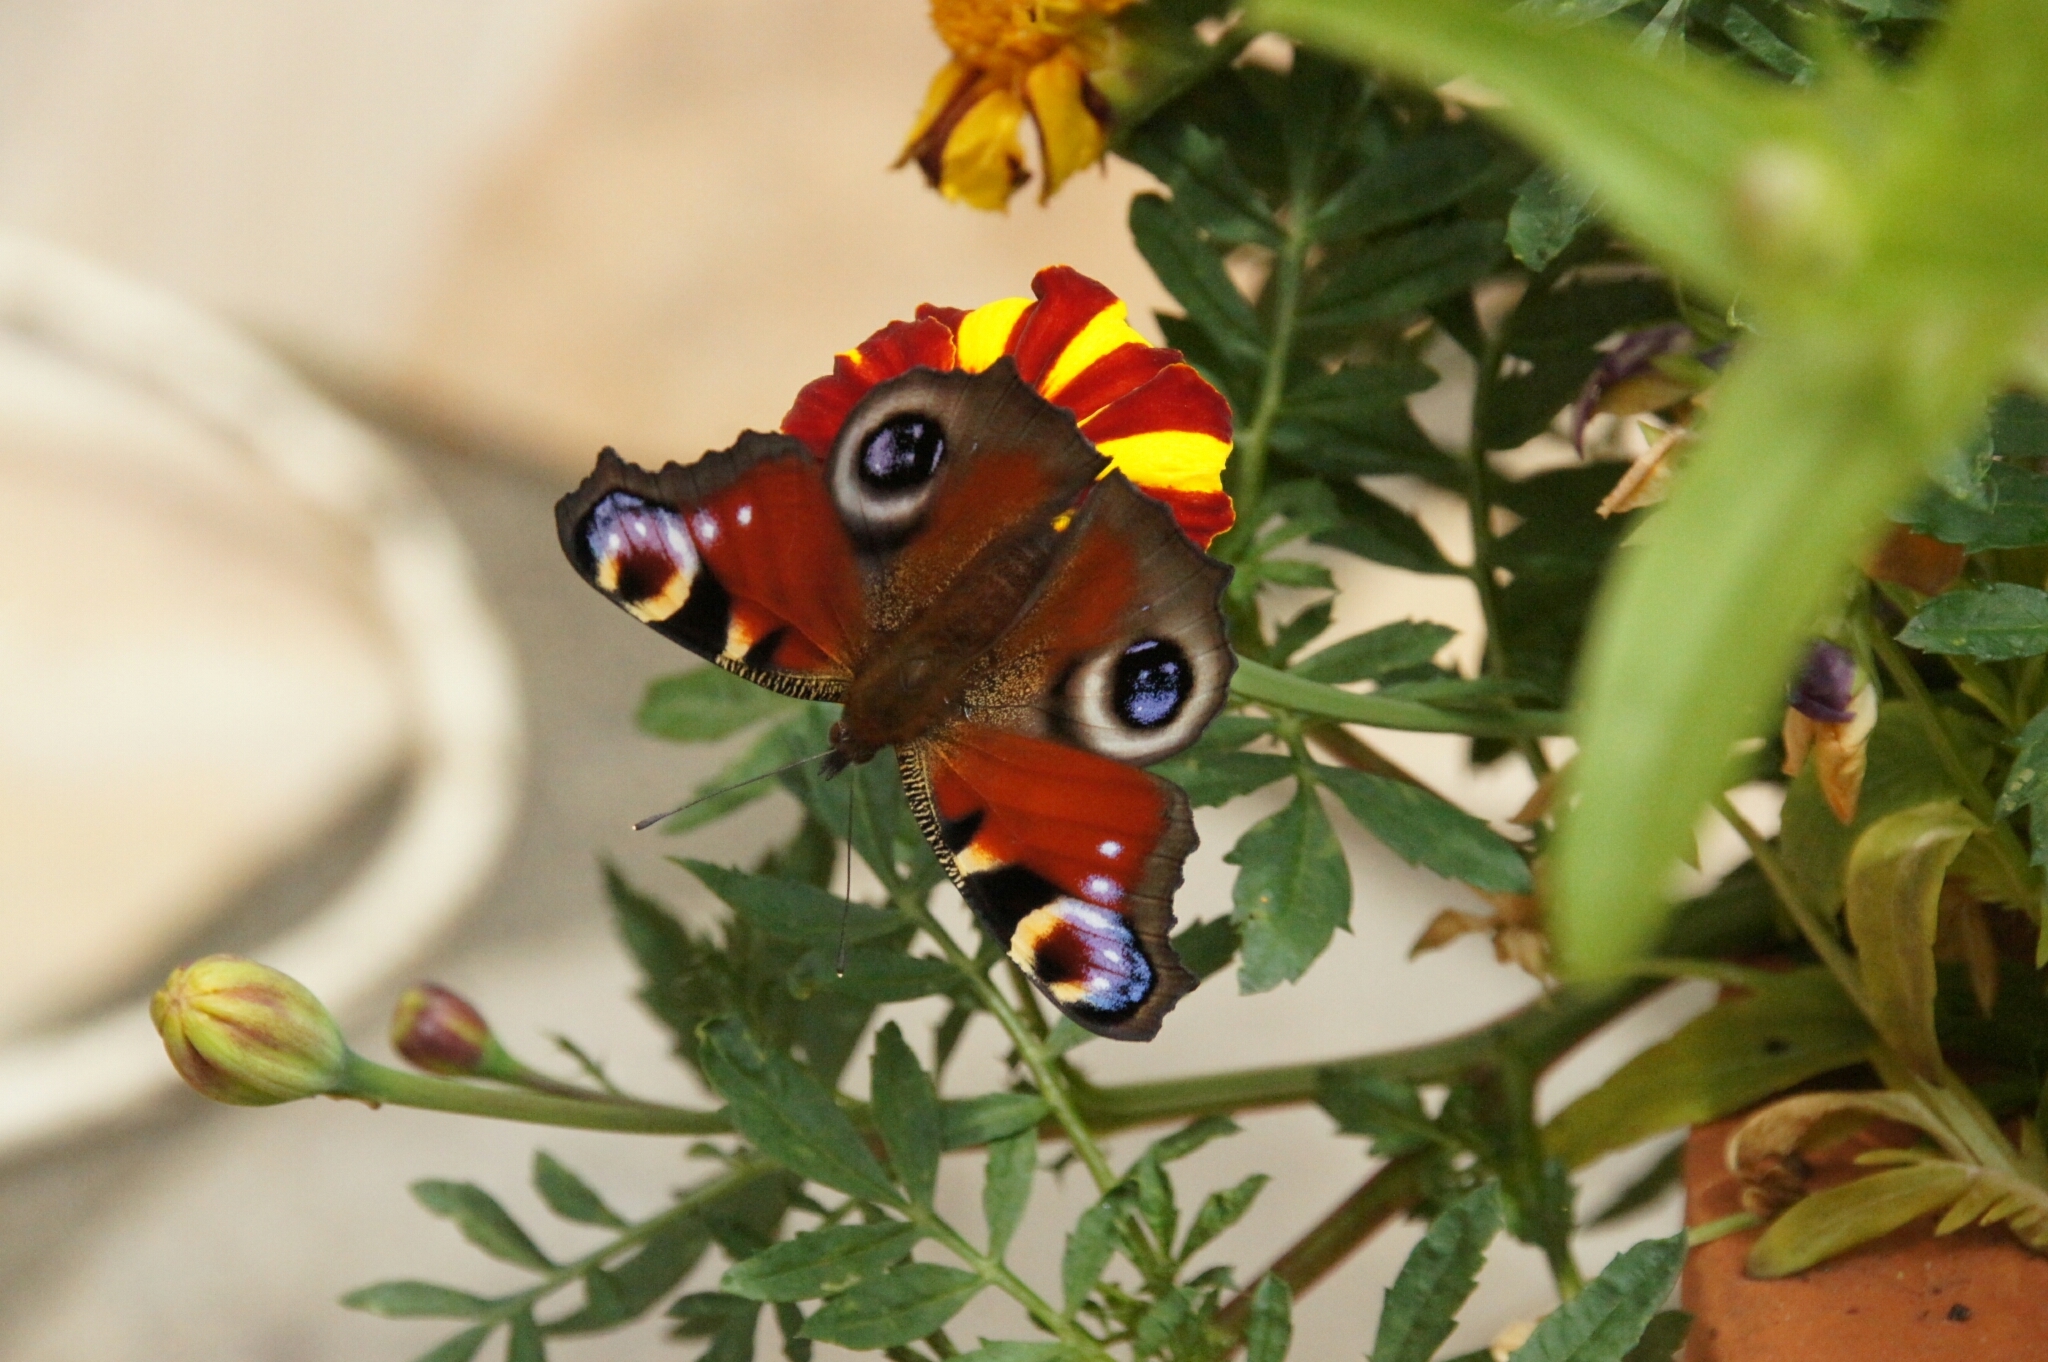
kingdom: Animalia
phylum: Arthropoda
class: Insecta
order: Lepidoptera
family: Nymphalidae
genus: Aglais
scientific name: Aglais io
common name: Peacock
